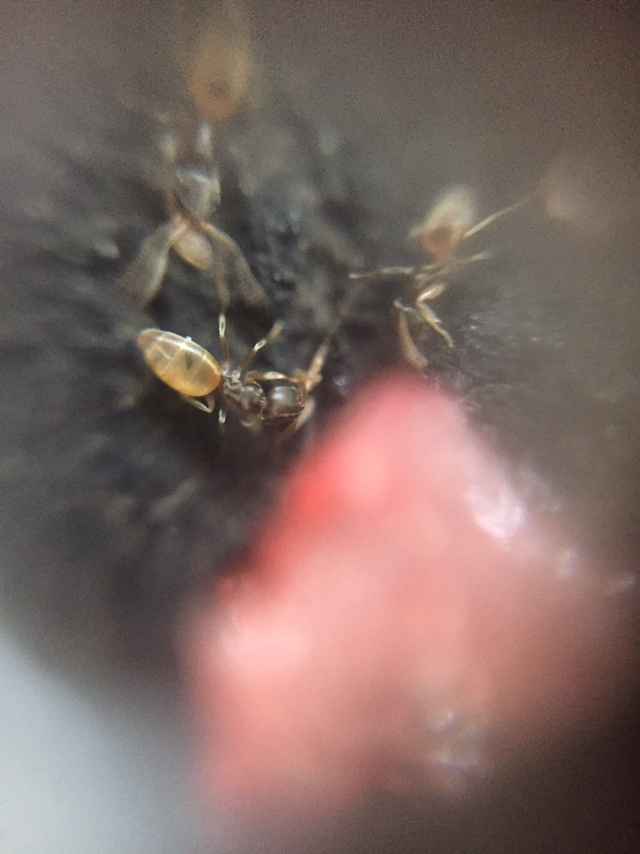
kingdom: Animalia
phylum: Arthropoda
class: Insecta
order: Hymenoptera
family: Formicidae
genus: Tapinoma
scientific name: Tapinoma melanocephalum
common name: Ghost ant
